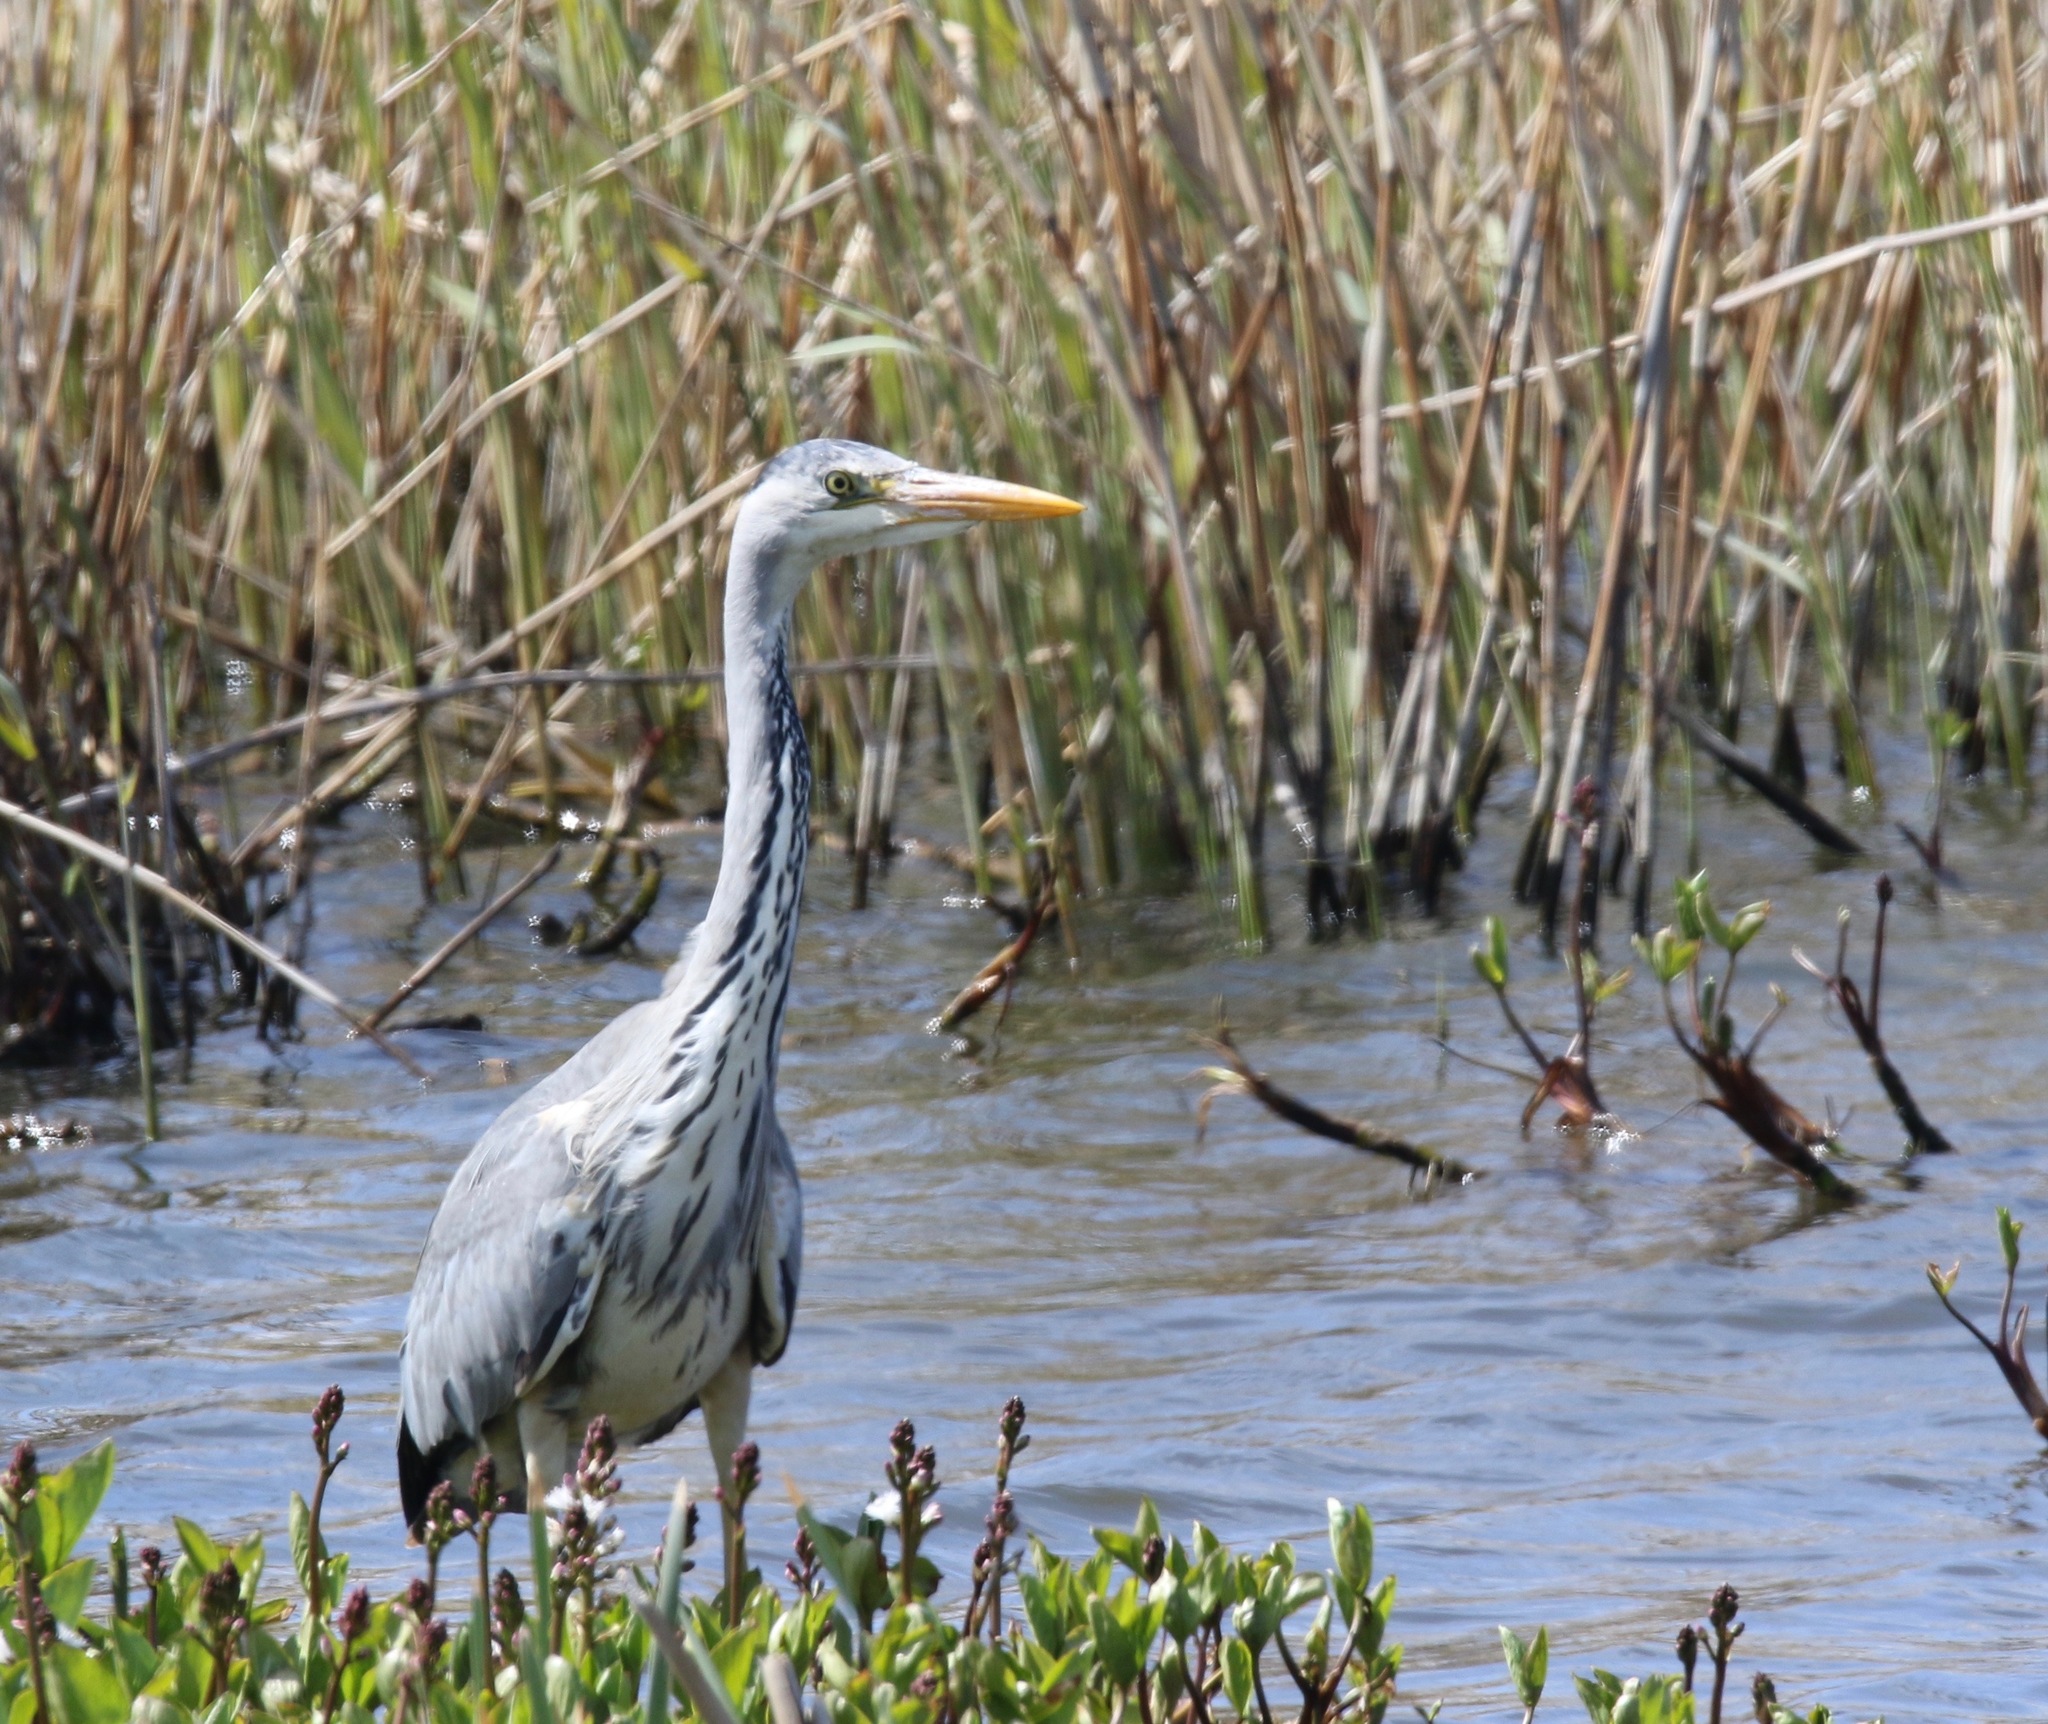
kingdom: Animalia
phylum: Chordata
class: Aves
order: Pelecaniformes
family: Ardeidae
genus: Ardea
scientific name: Ardea cinerea
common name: Grey heron
